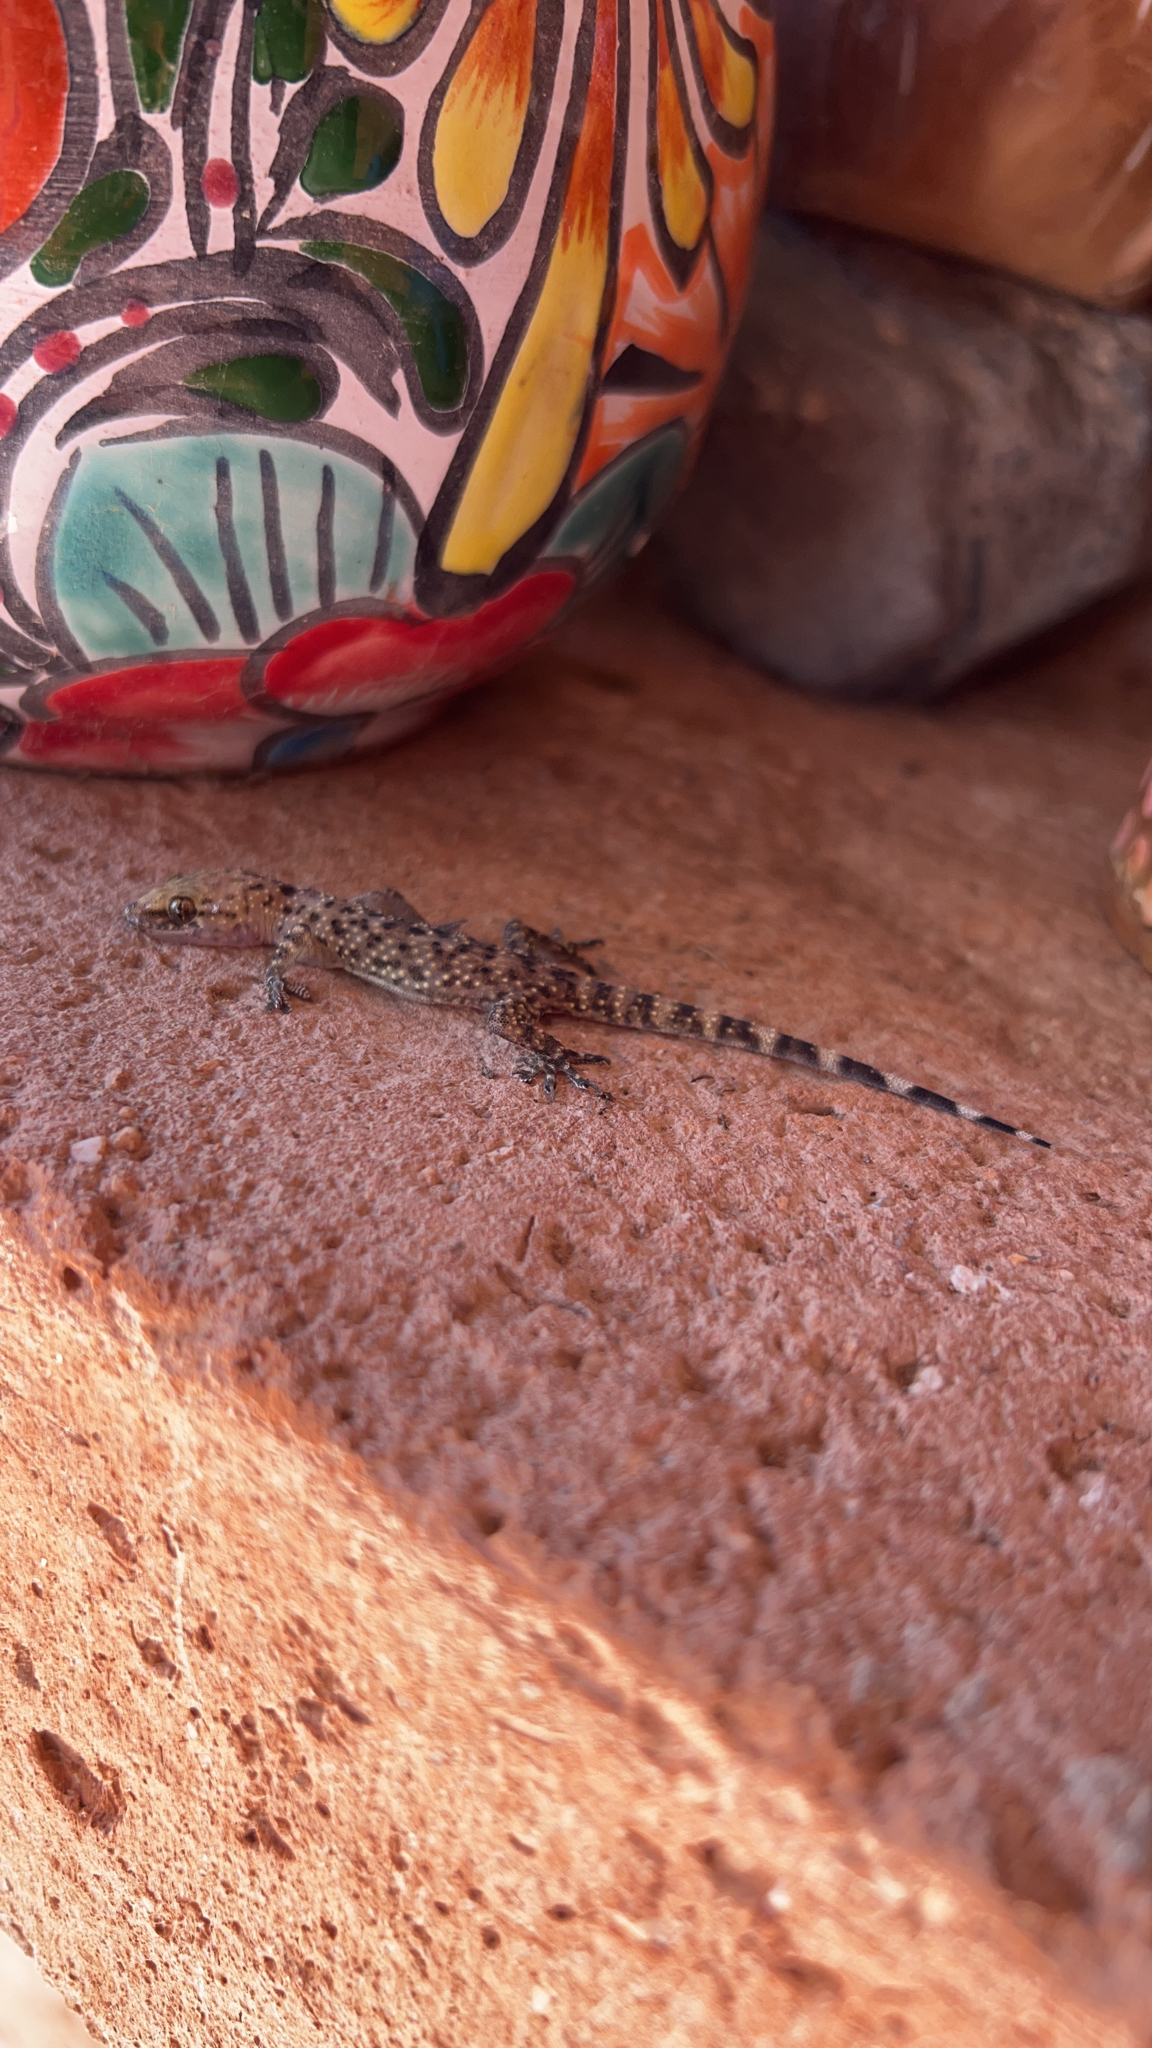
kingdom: Animalia
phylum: Chordata
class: Squamata
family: Gekkonidae
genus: Hemidactylus
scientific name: Hemidactylus turcicus
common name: Turkish gecko
